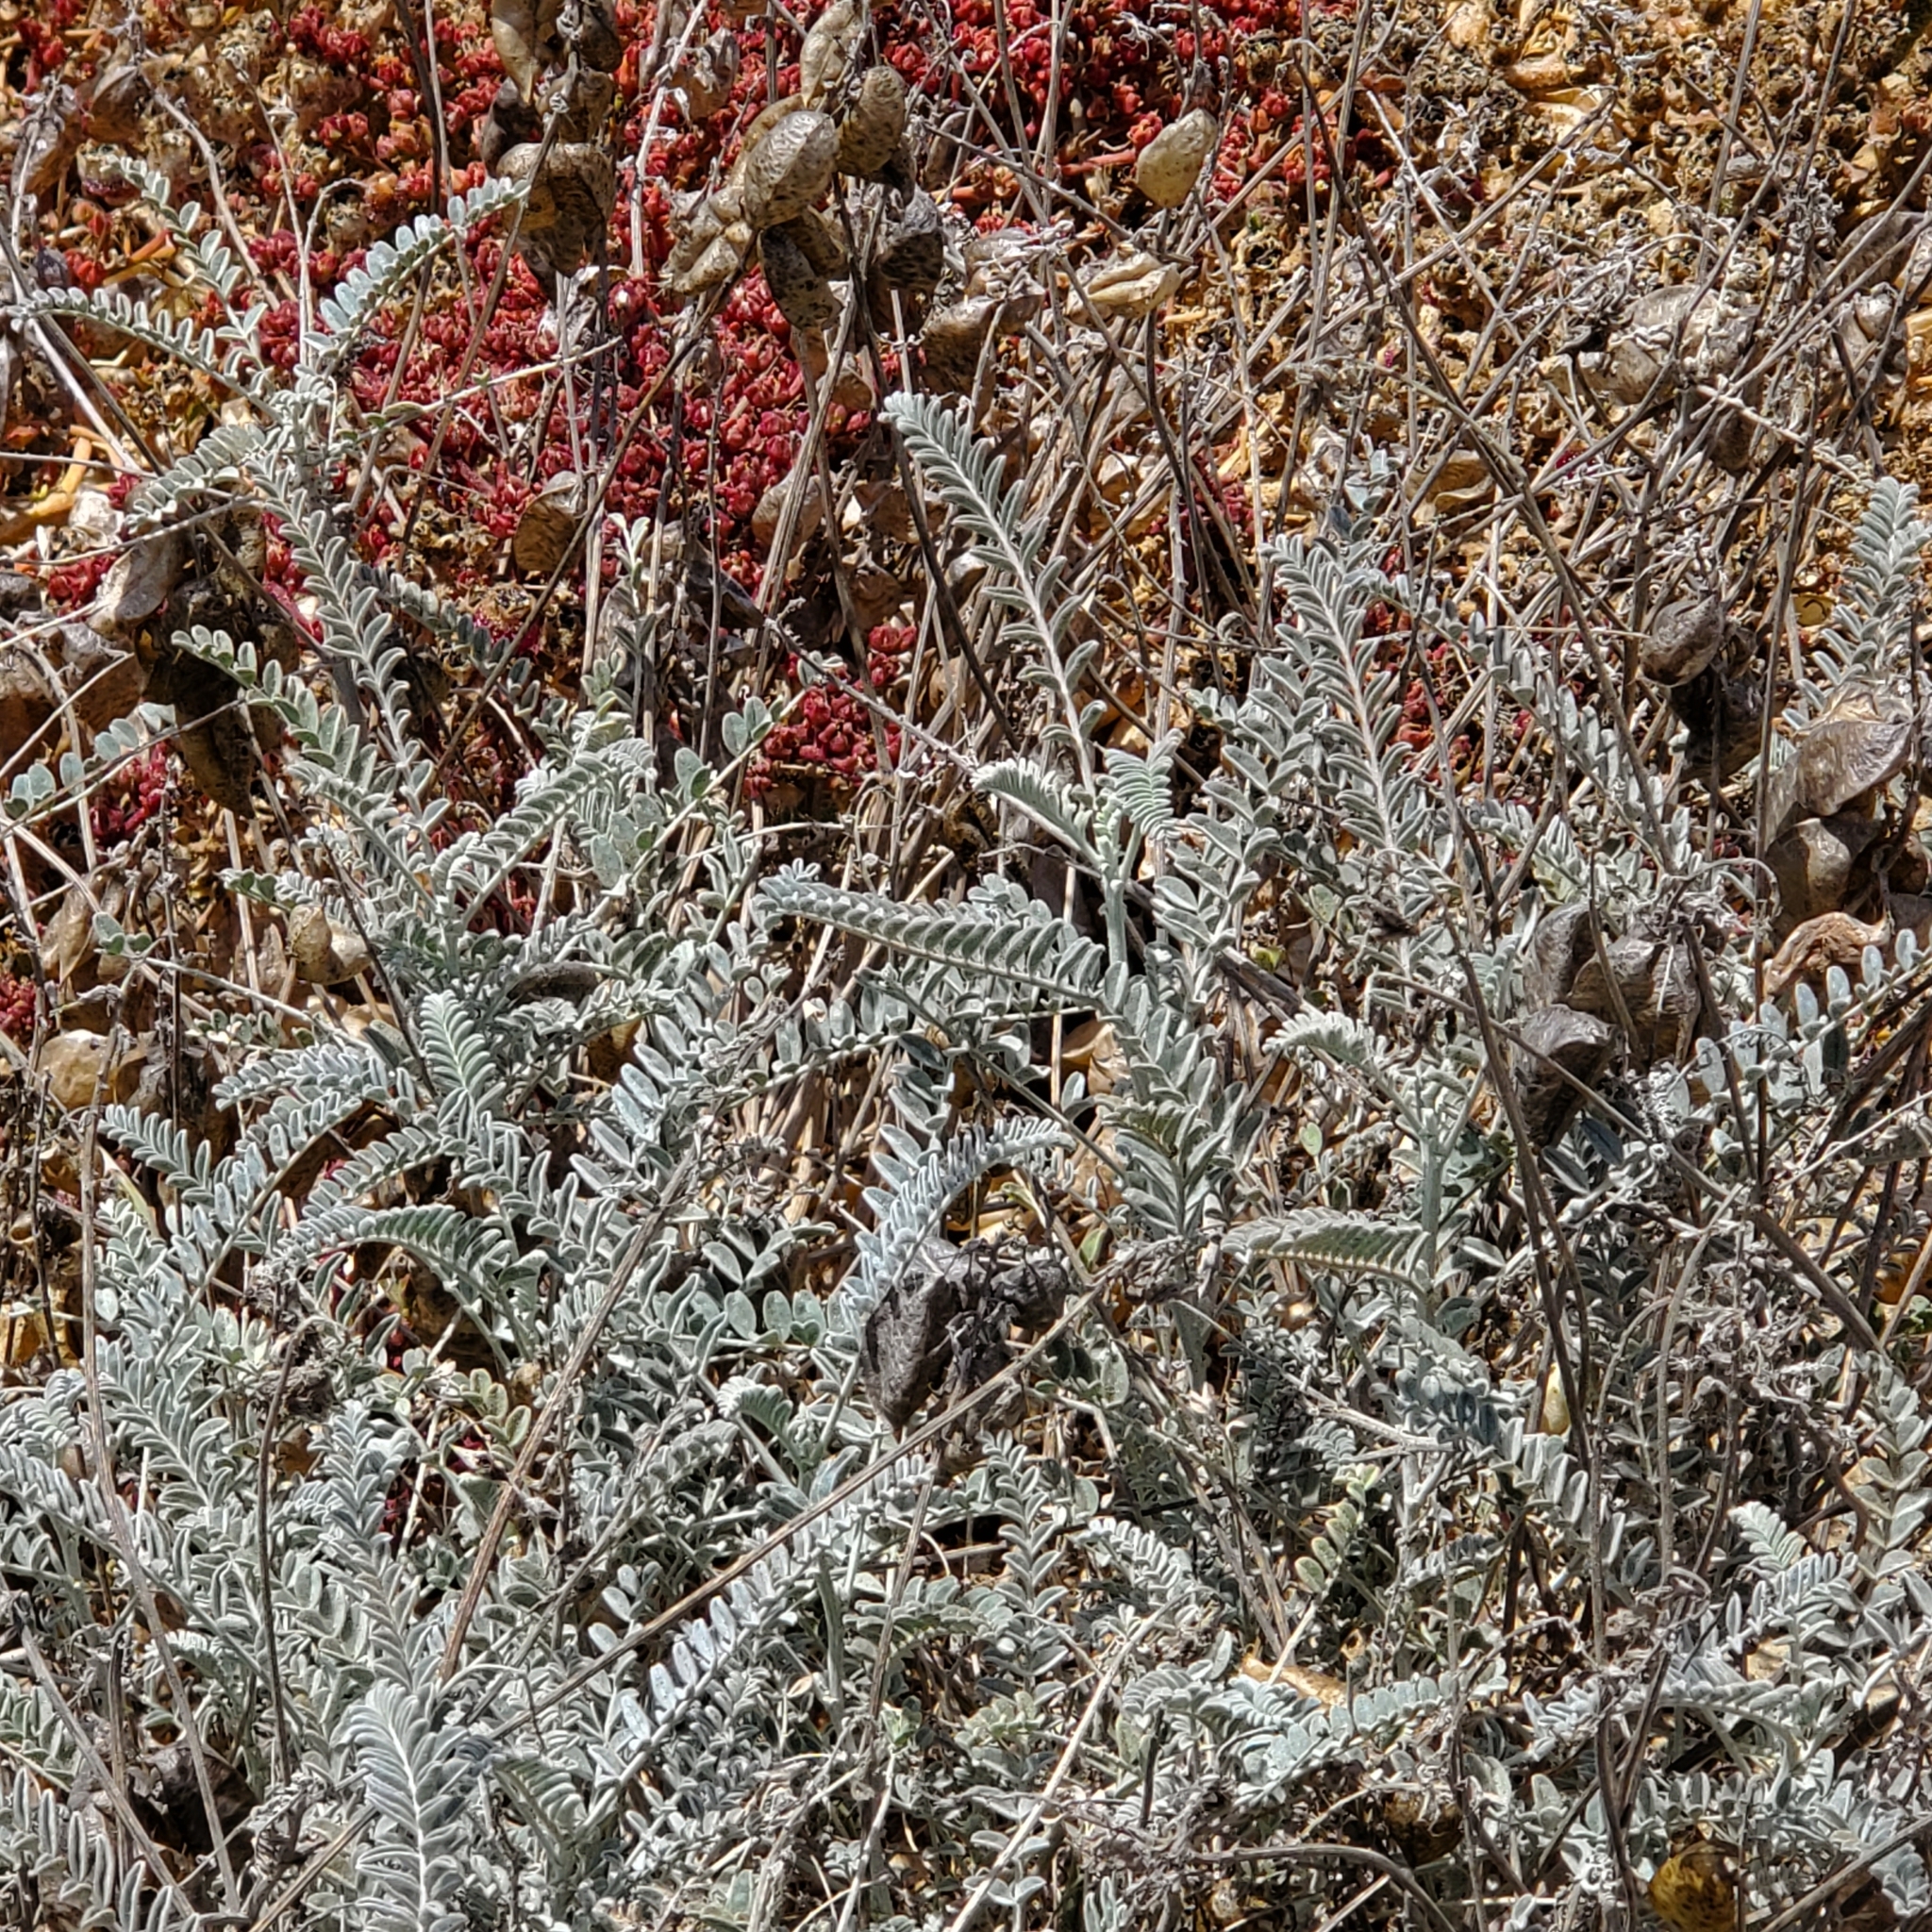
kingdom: Plantae
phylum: Tracheophyta
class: Magnoliopsida
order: Fabales
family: Fabaceae
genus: Astragalus
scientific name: Astragalus trichopodus
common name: Santa barbara milk-vetch
